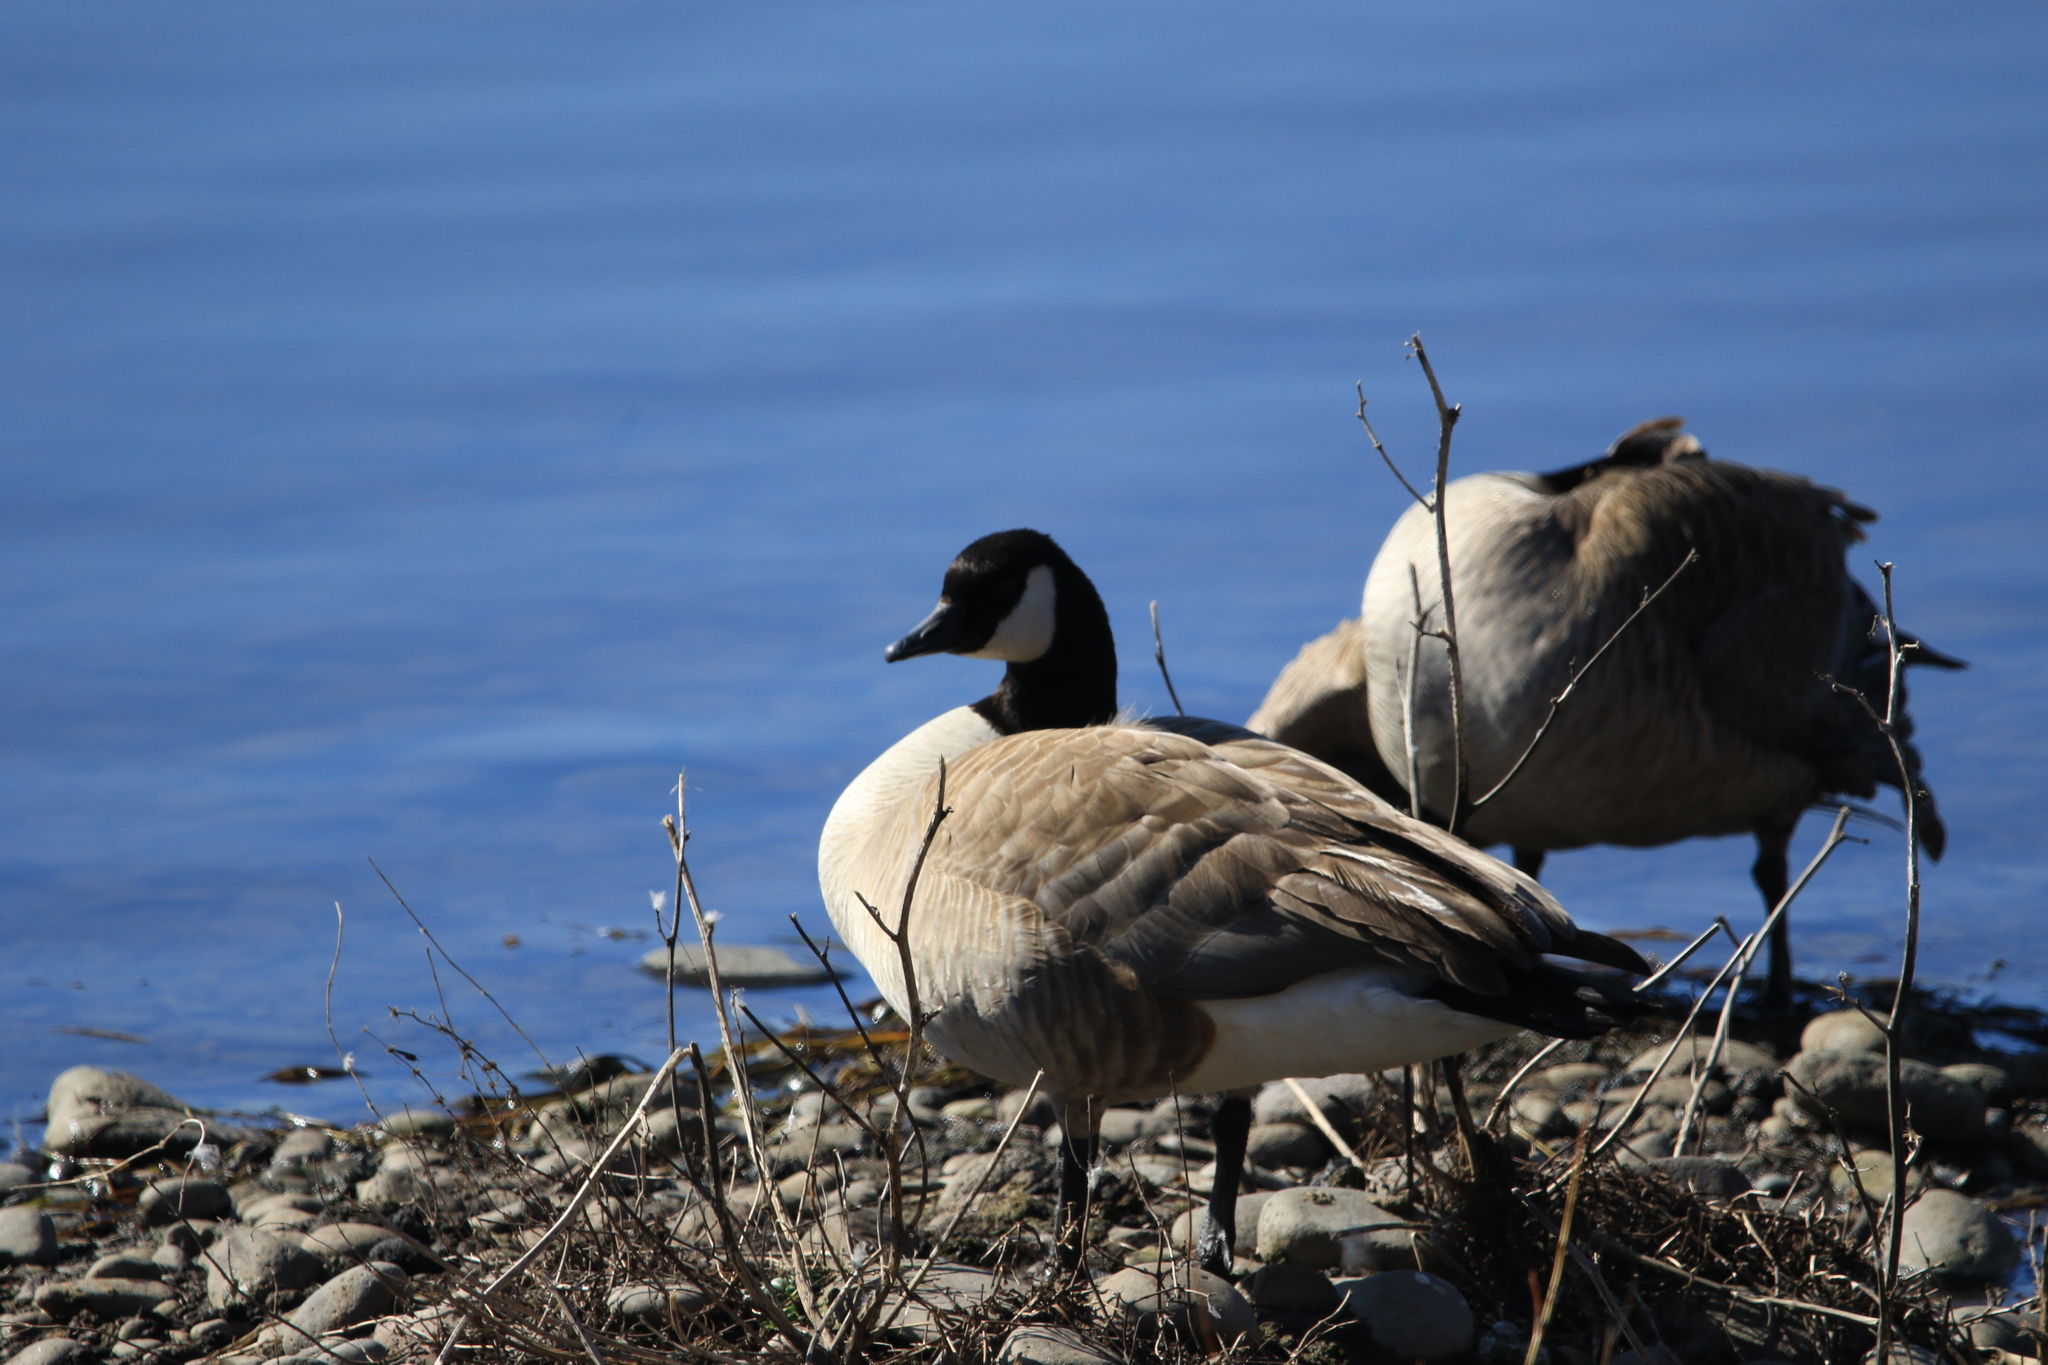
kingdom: Animalia
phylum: Chordata
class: Aves
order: Anseriformes
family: Anatidae
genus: Branta
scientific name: Branta canadensis
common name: Canada goose
